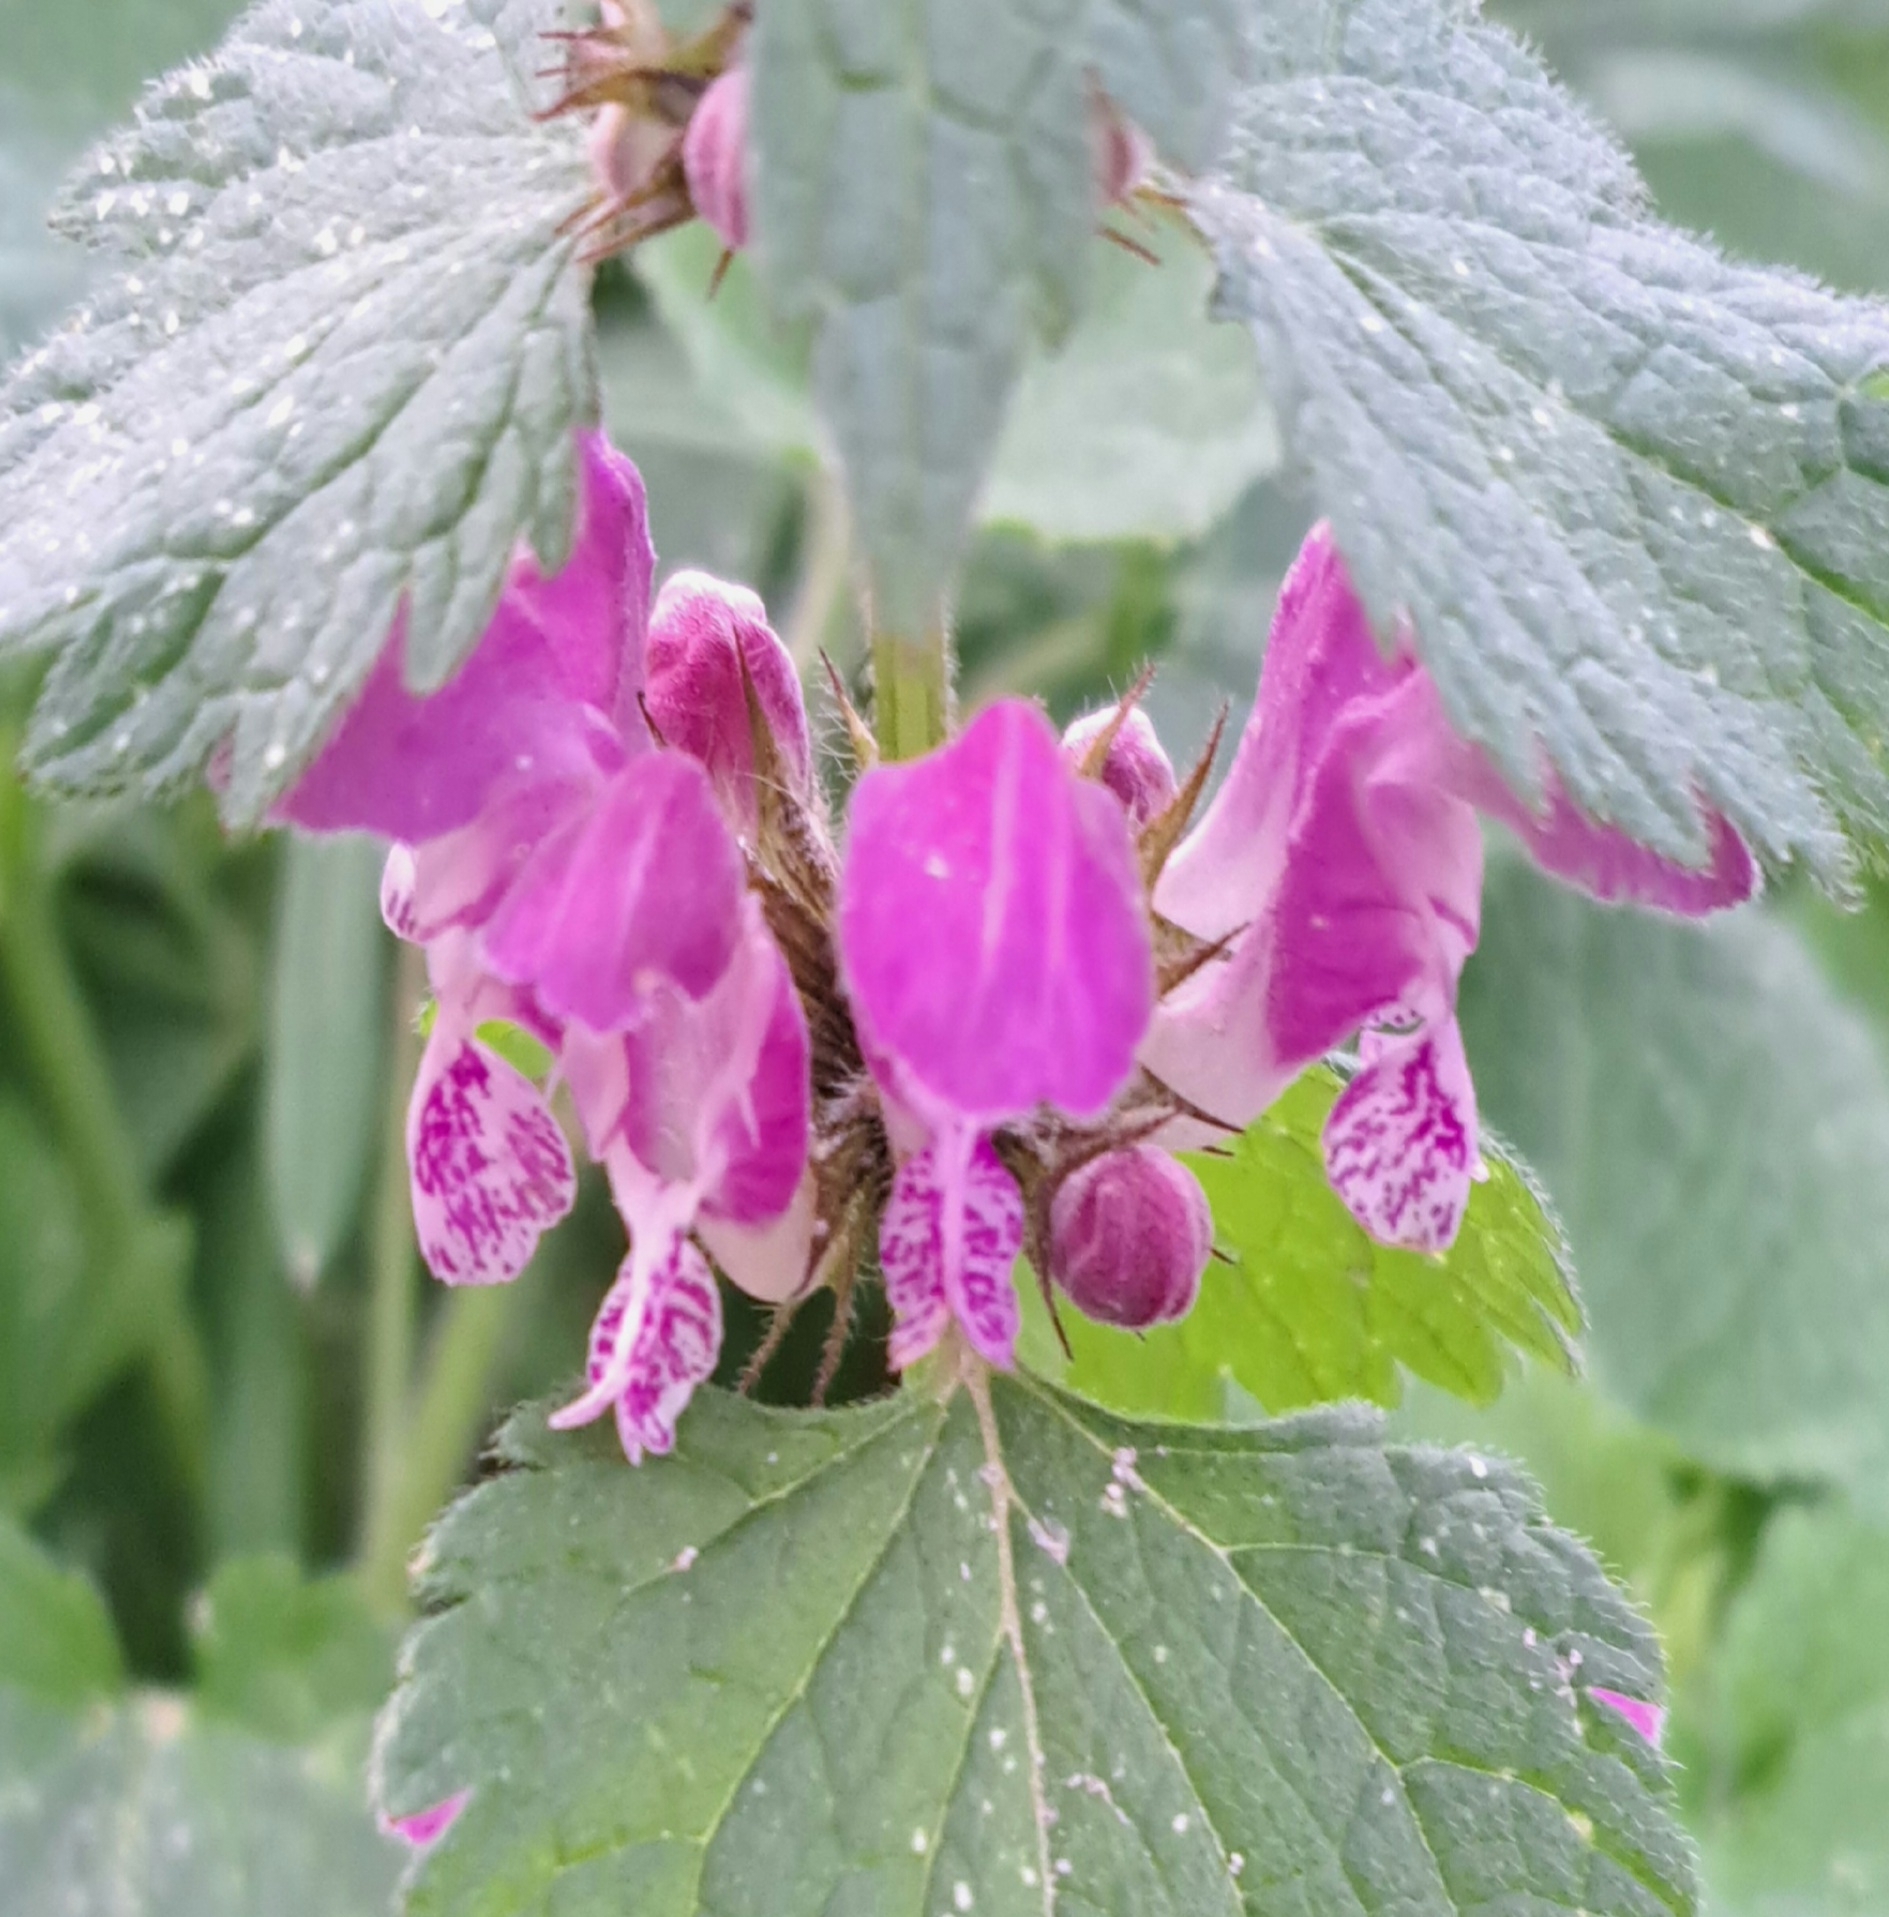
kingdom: Plantae
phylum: Tracheophyta
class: Magnoliopsida
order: Lamiales
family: Lamiaceae
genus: Lamium
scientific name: Lamium maculatum
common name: Spotted dead-nettle
